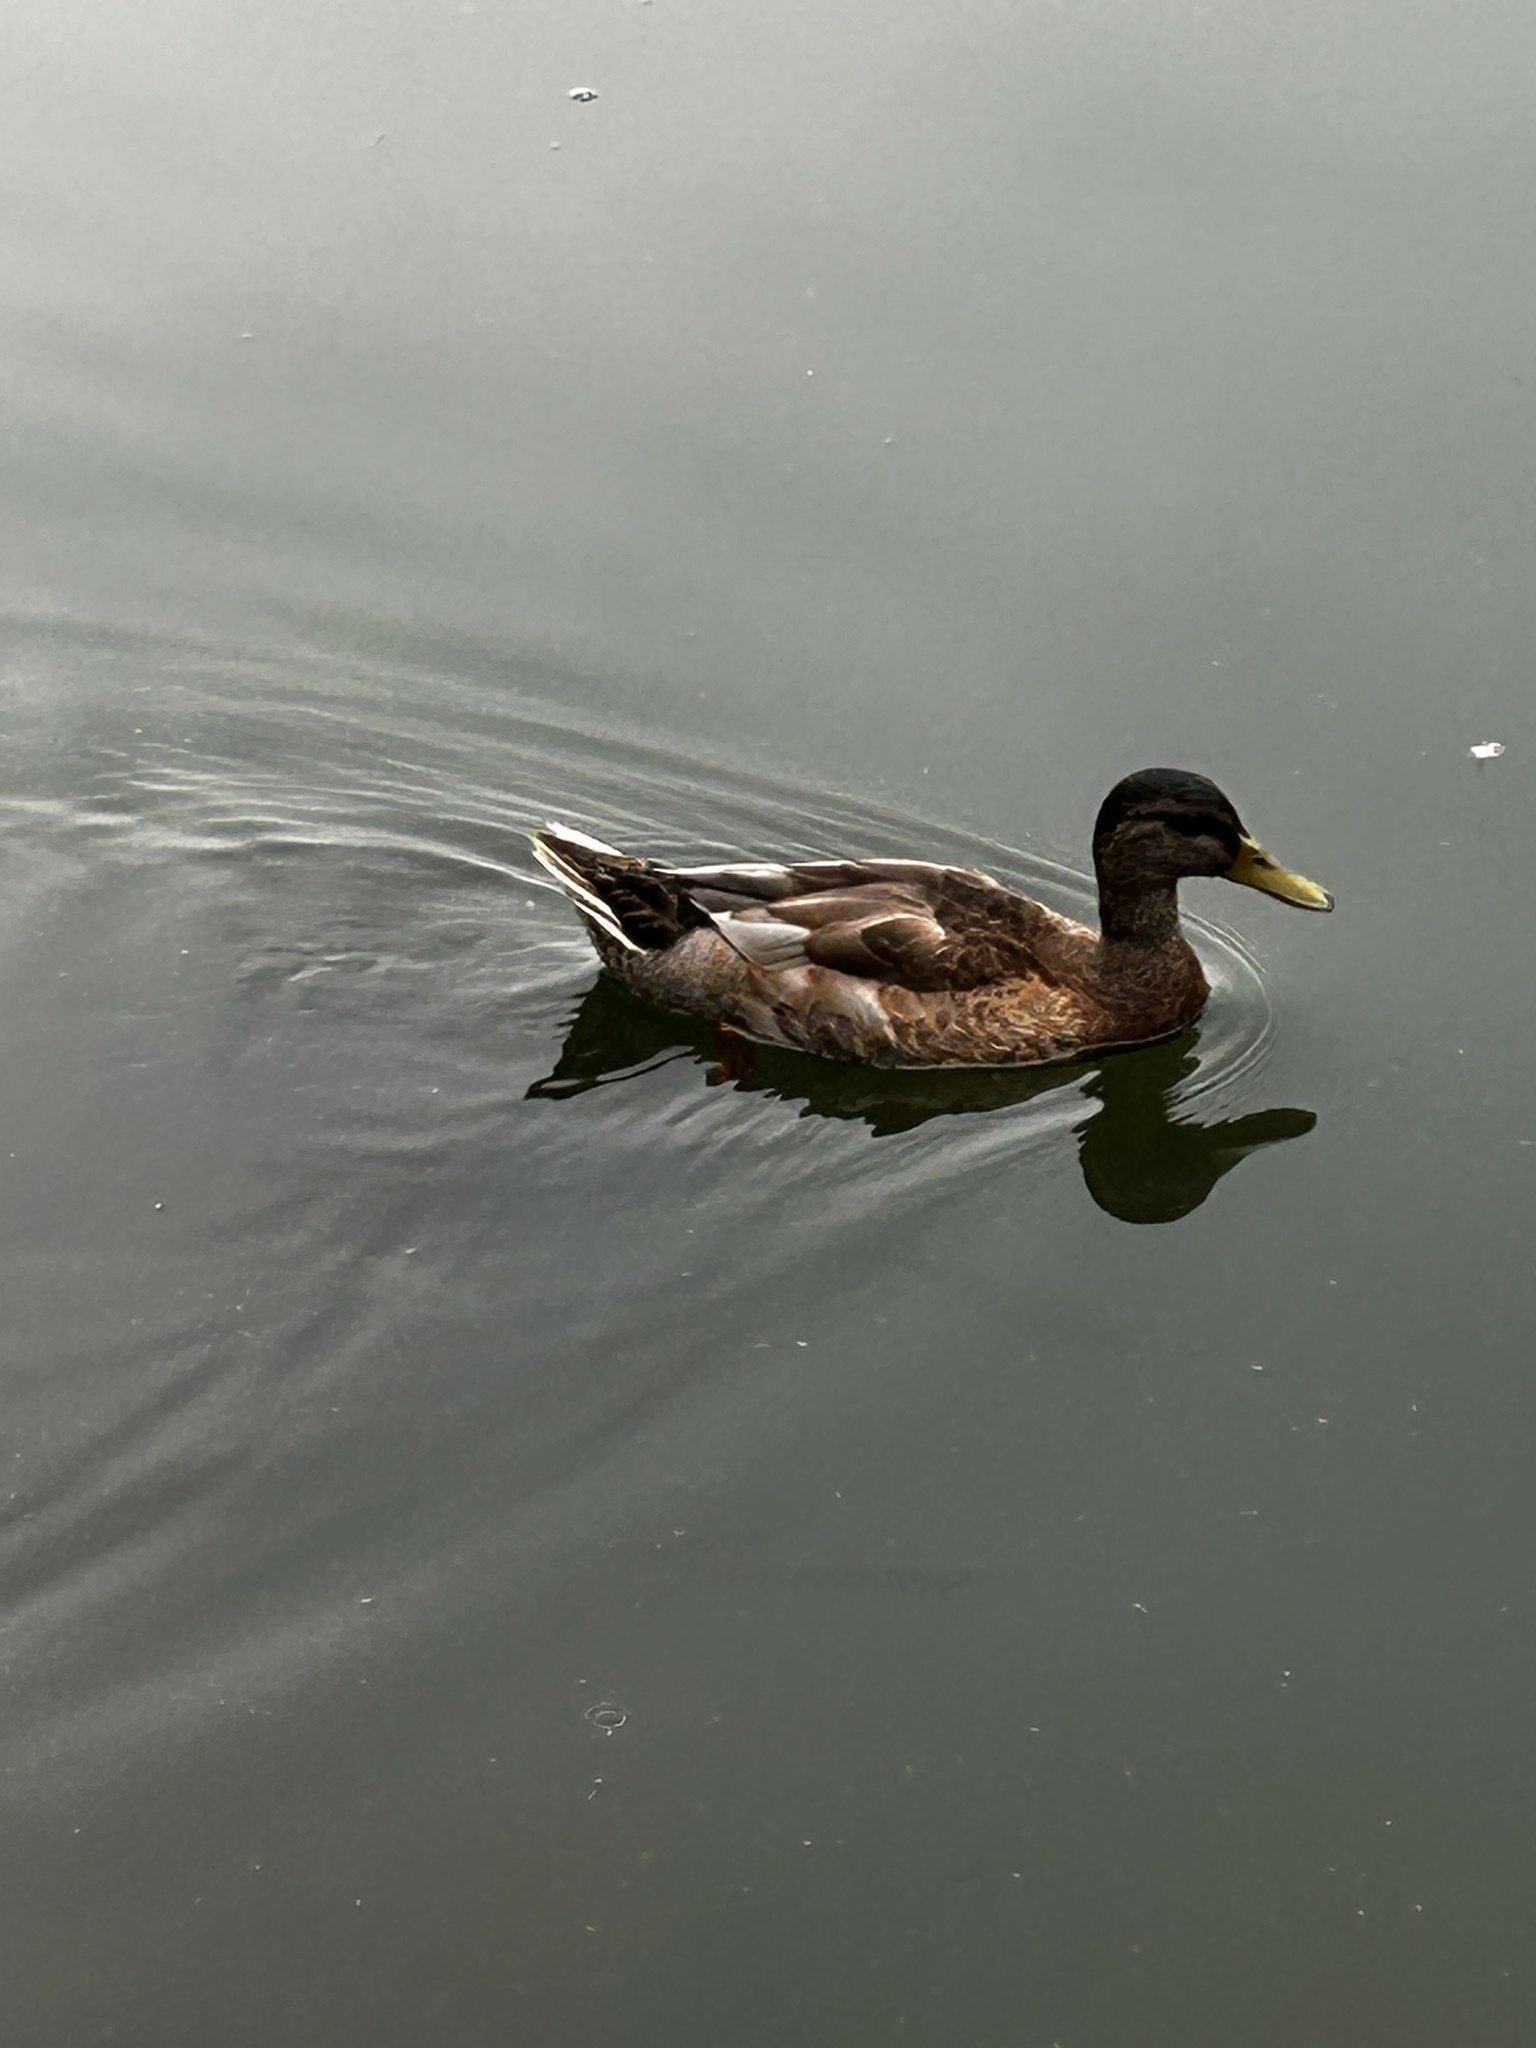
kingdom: Animalia
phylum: Chordata
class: Aves
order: Anseriformes
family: Anatidae
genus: Anas
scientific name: Anas platyrhynchos
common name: Mallard
